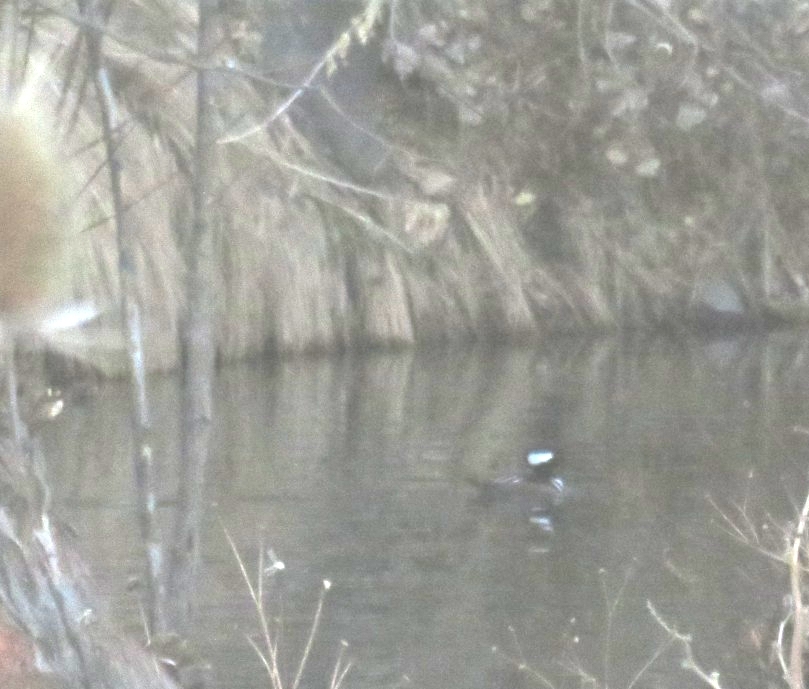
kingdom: Animalia
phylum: Chordata
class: Aves
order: Anseriformes
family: Anatidae
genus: Lophodytes
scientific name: Lophodytes cucullatus
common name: Hooded merganser
